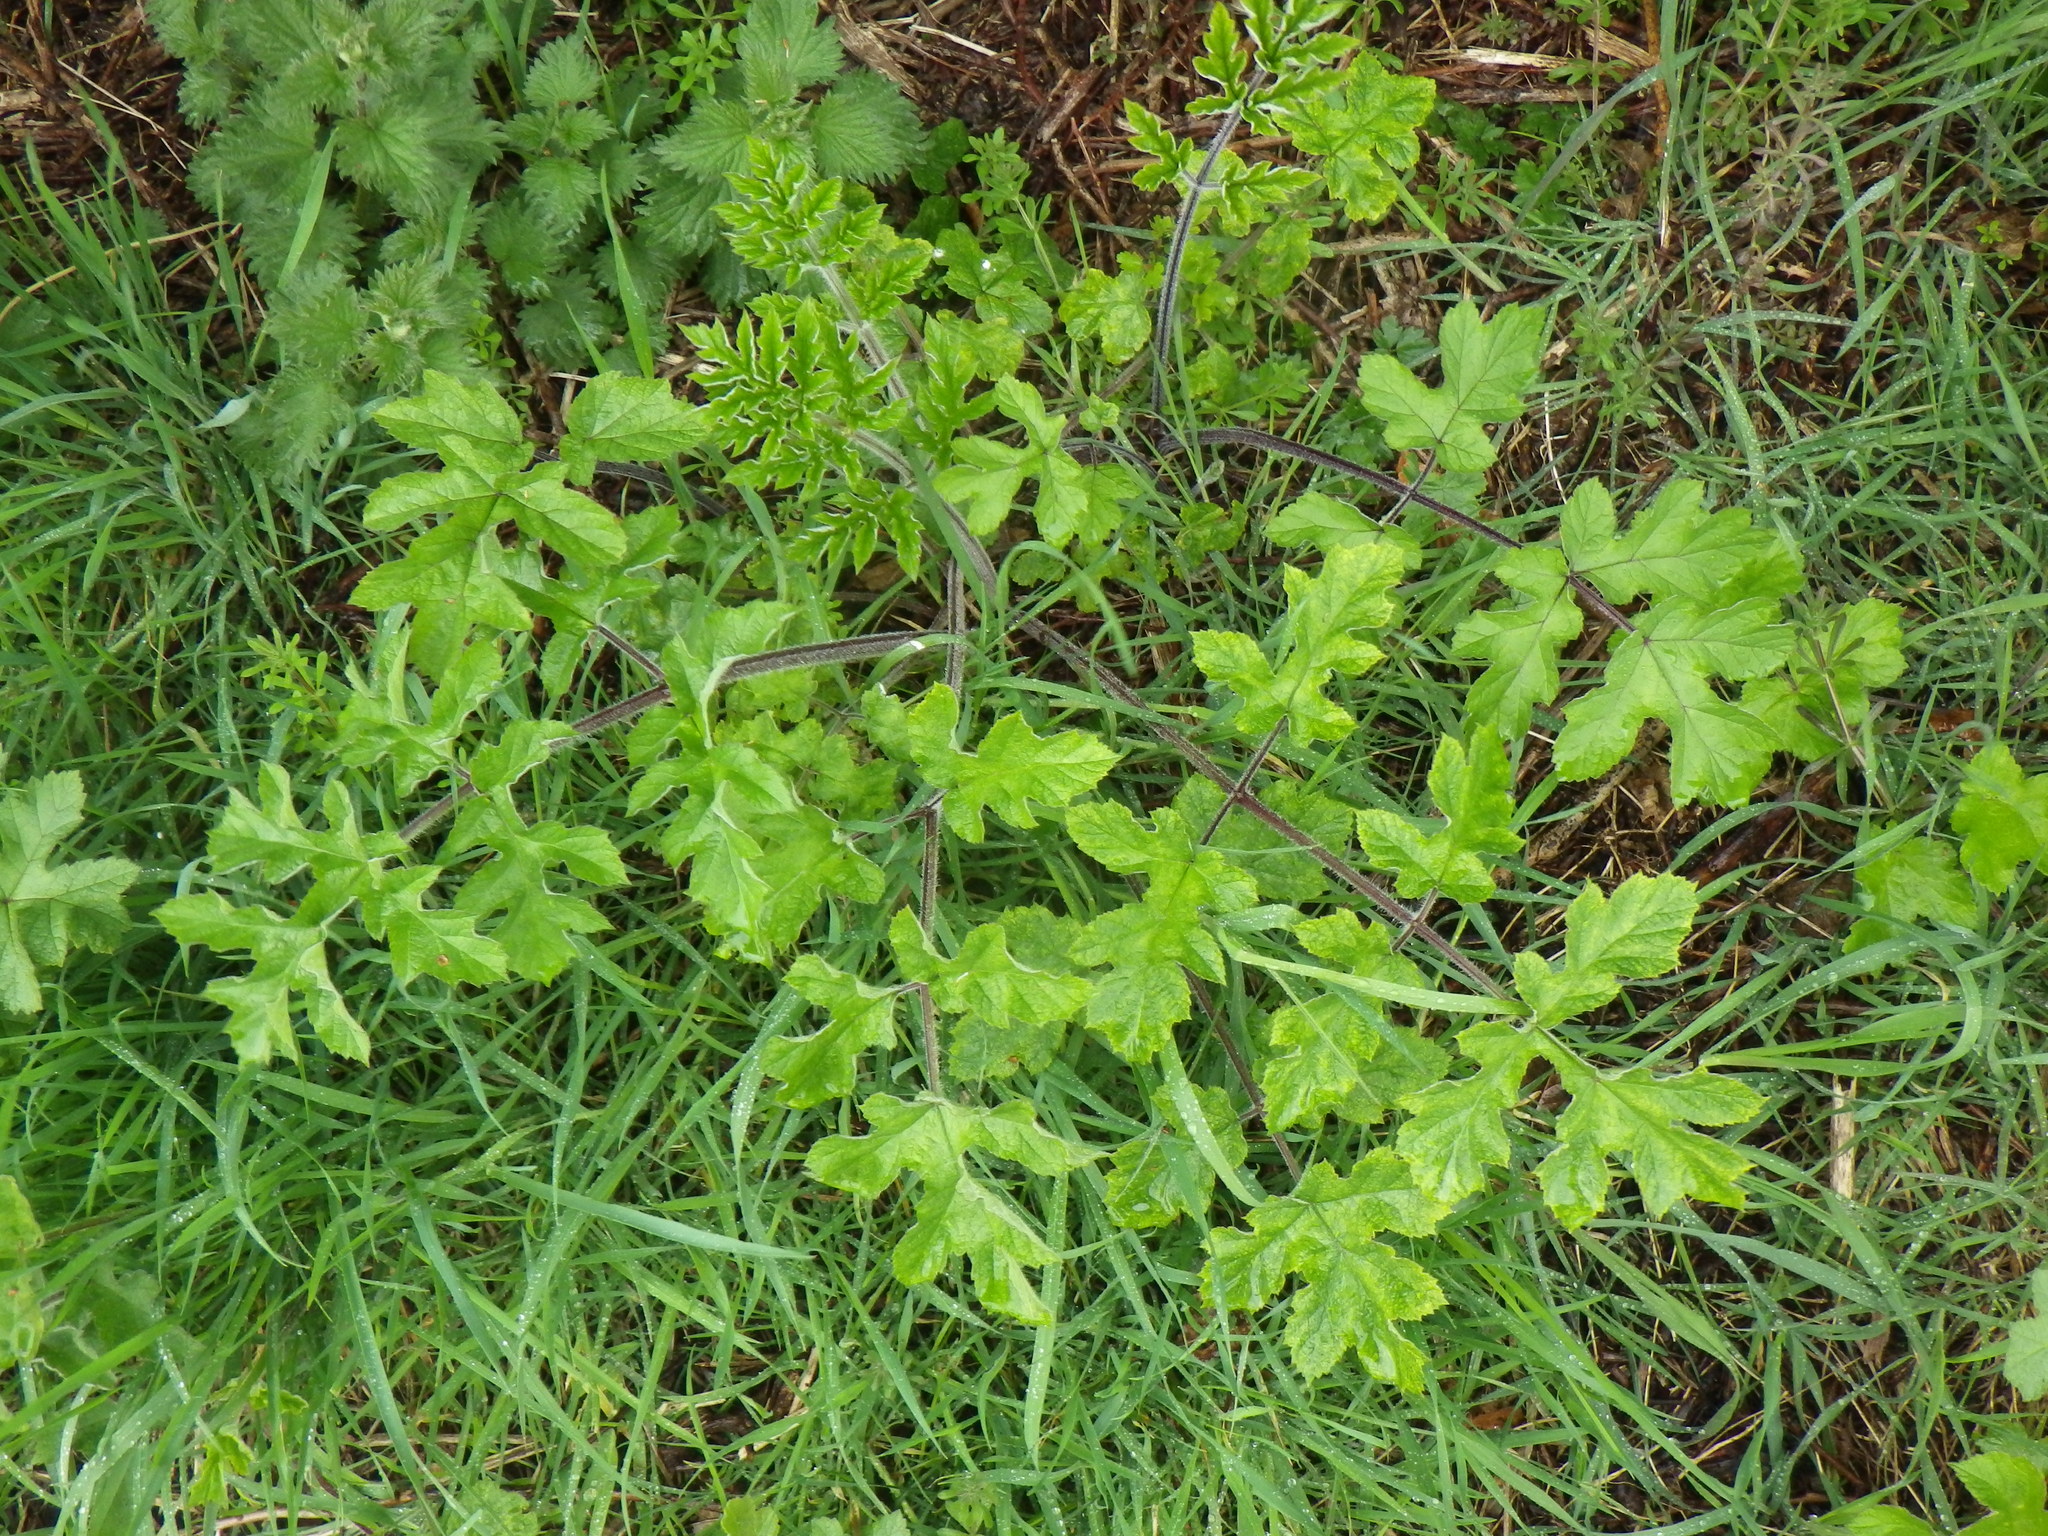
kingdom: Plantae
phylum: Tracheophyta
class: Magnoliopsida
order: Apiales
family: Apiaceae
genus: Heracleum
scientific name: Heracleum sphondylium
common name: Hogweed
